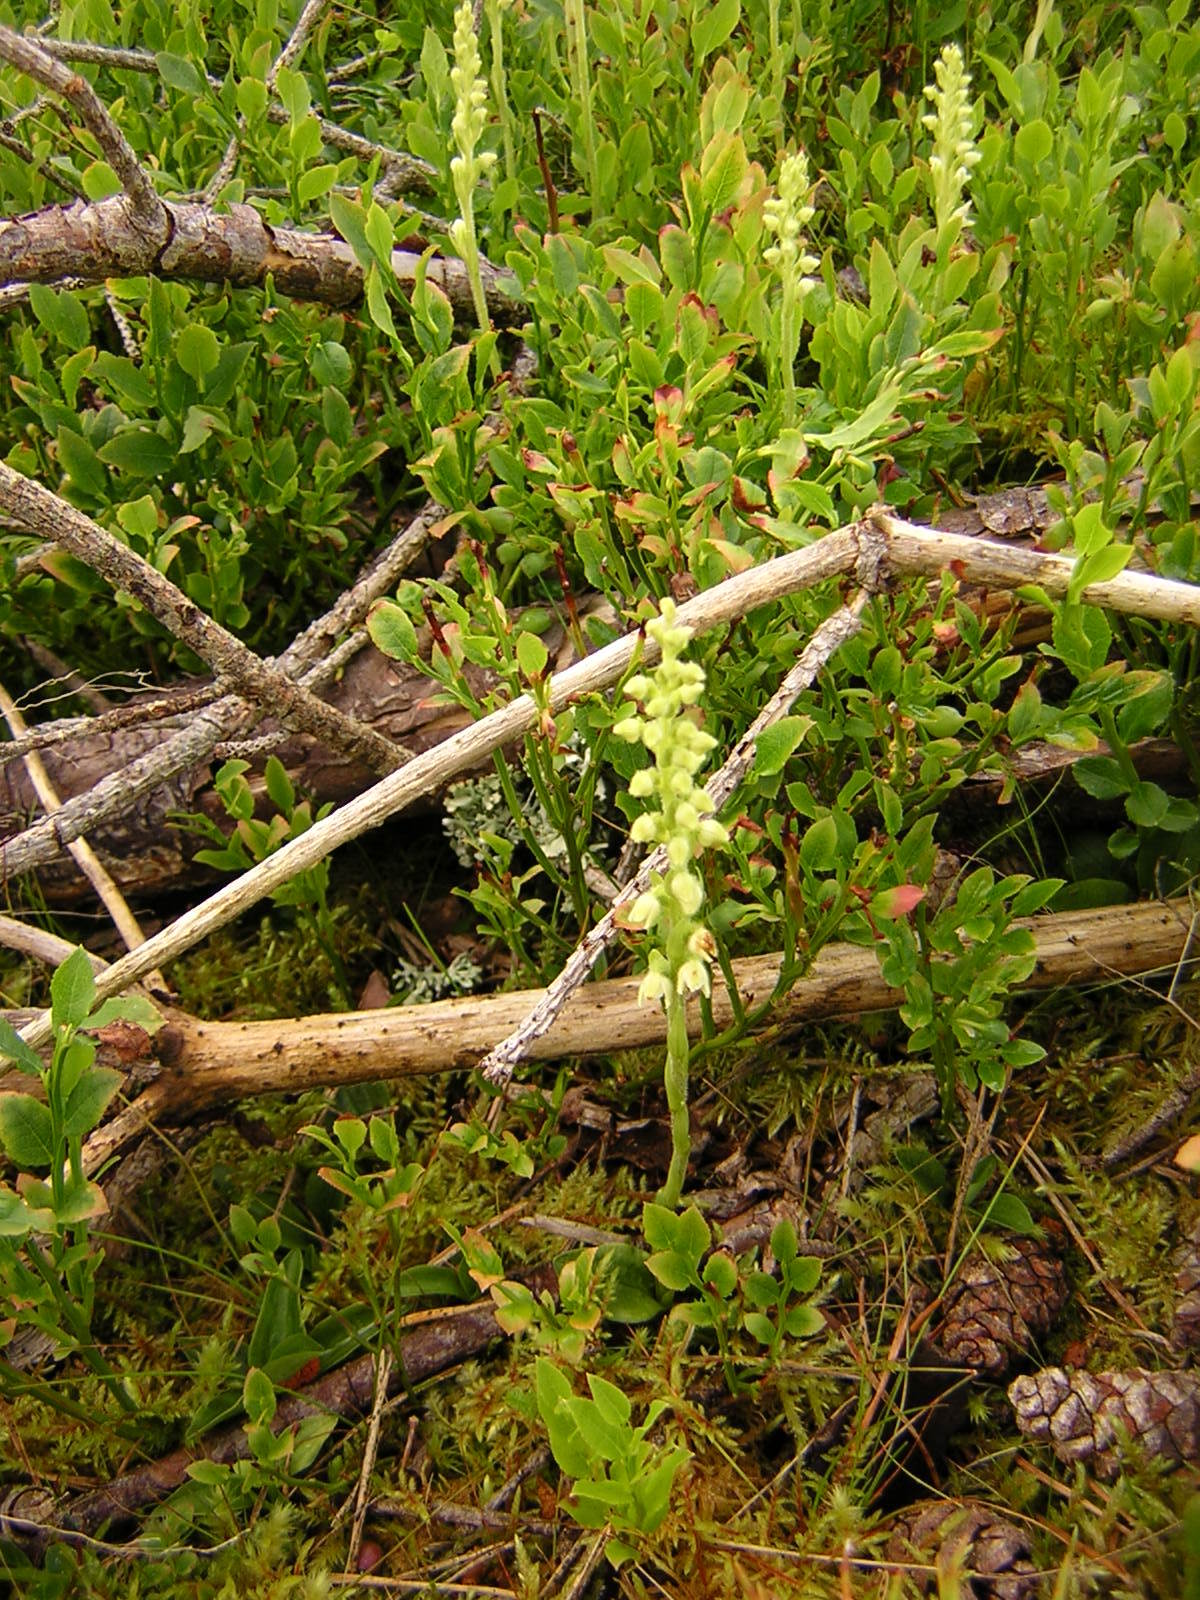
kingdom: Plantae
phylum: Tracheophyta
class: Liliopsida
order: Asparagales
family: Orchidaceae
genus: Goodyera
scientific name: Goodyera repens
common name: Creeping lady's-tresses
